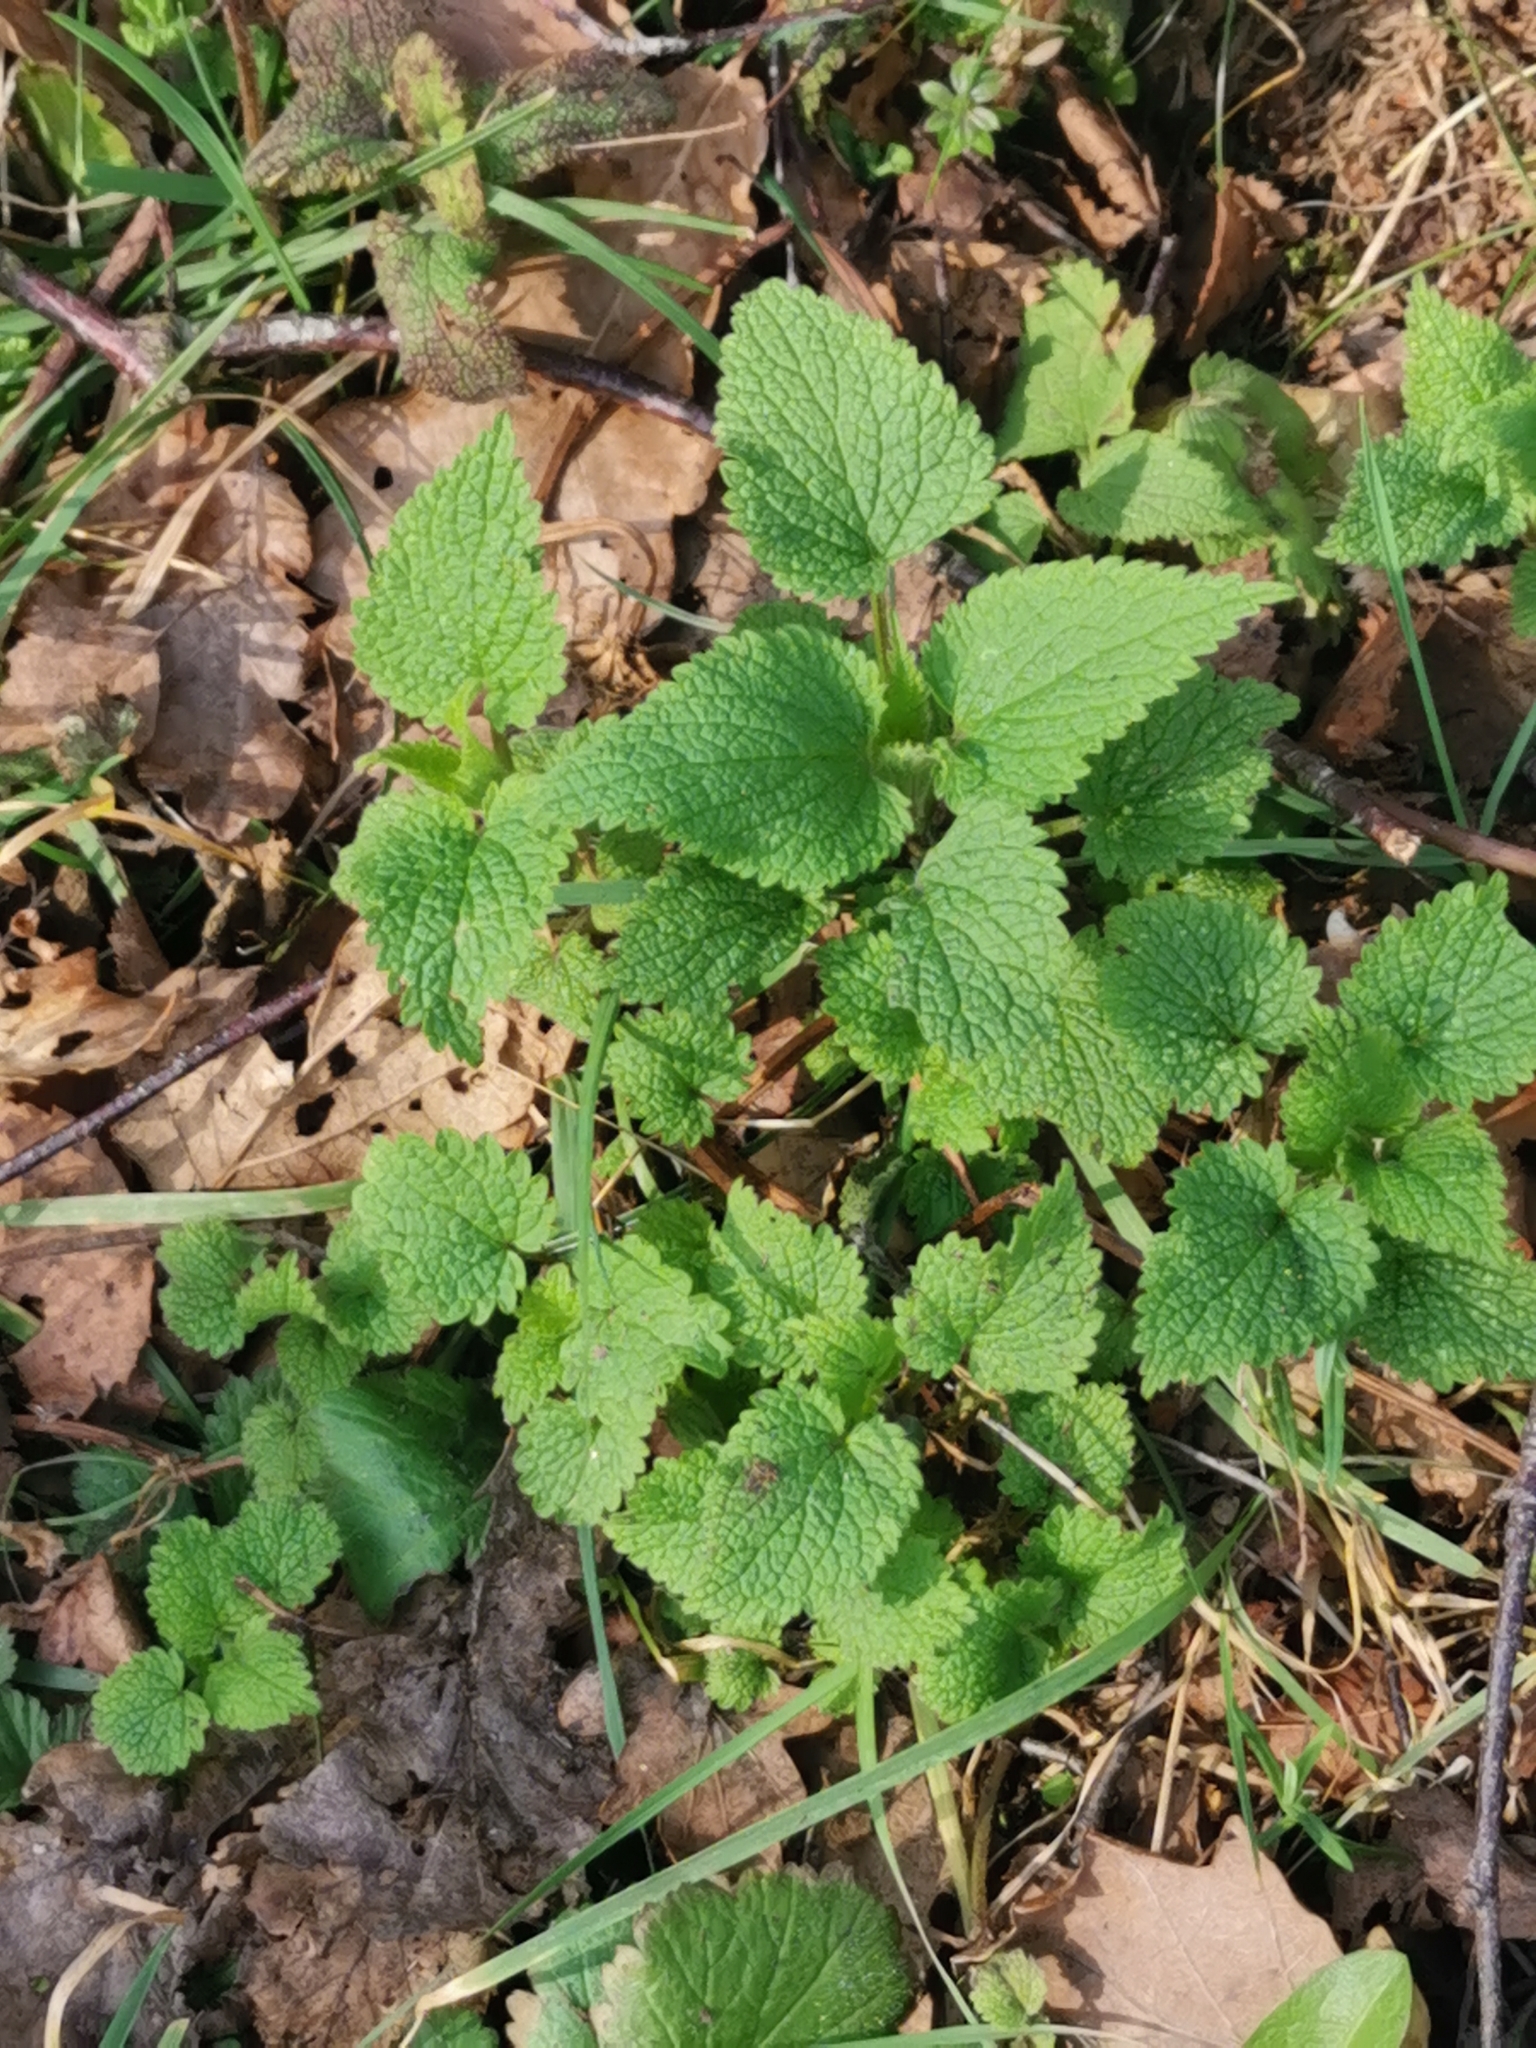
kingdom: Plantae
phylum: Tracheophyta
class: Magnoliopsida
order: Lamiales
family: Lamiaceae
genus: Teucrium
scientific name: Teucrium scorodonia
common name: Woodland germander
